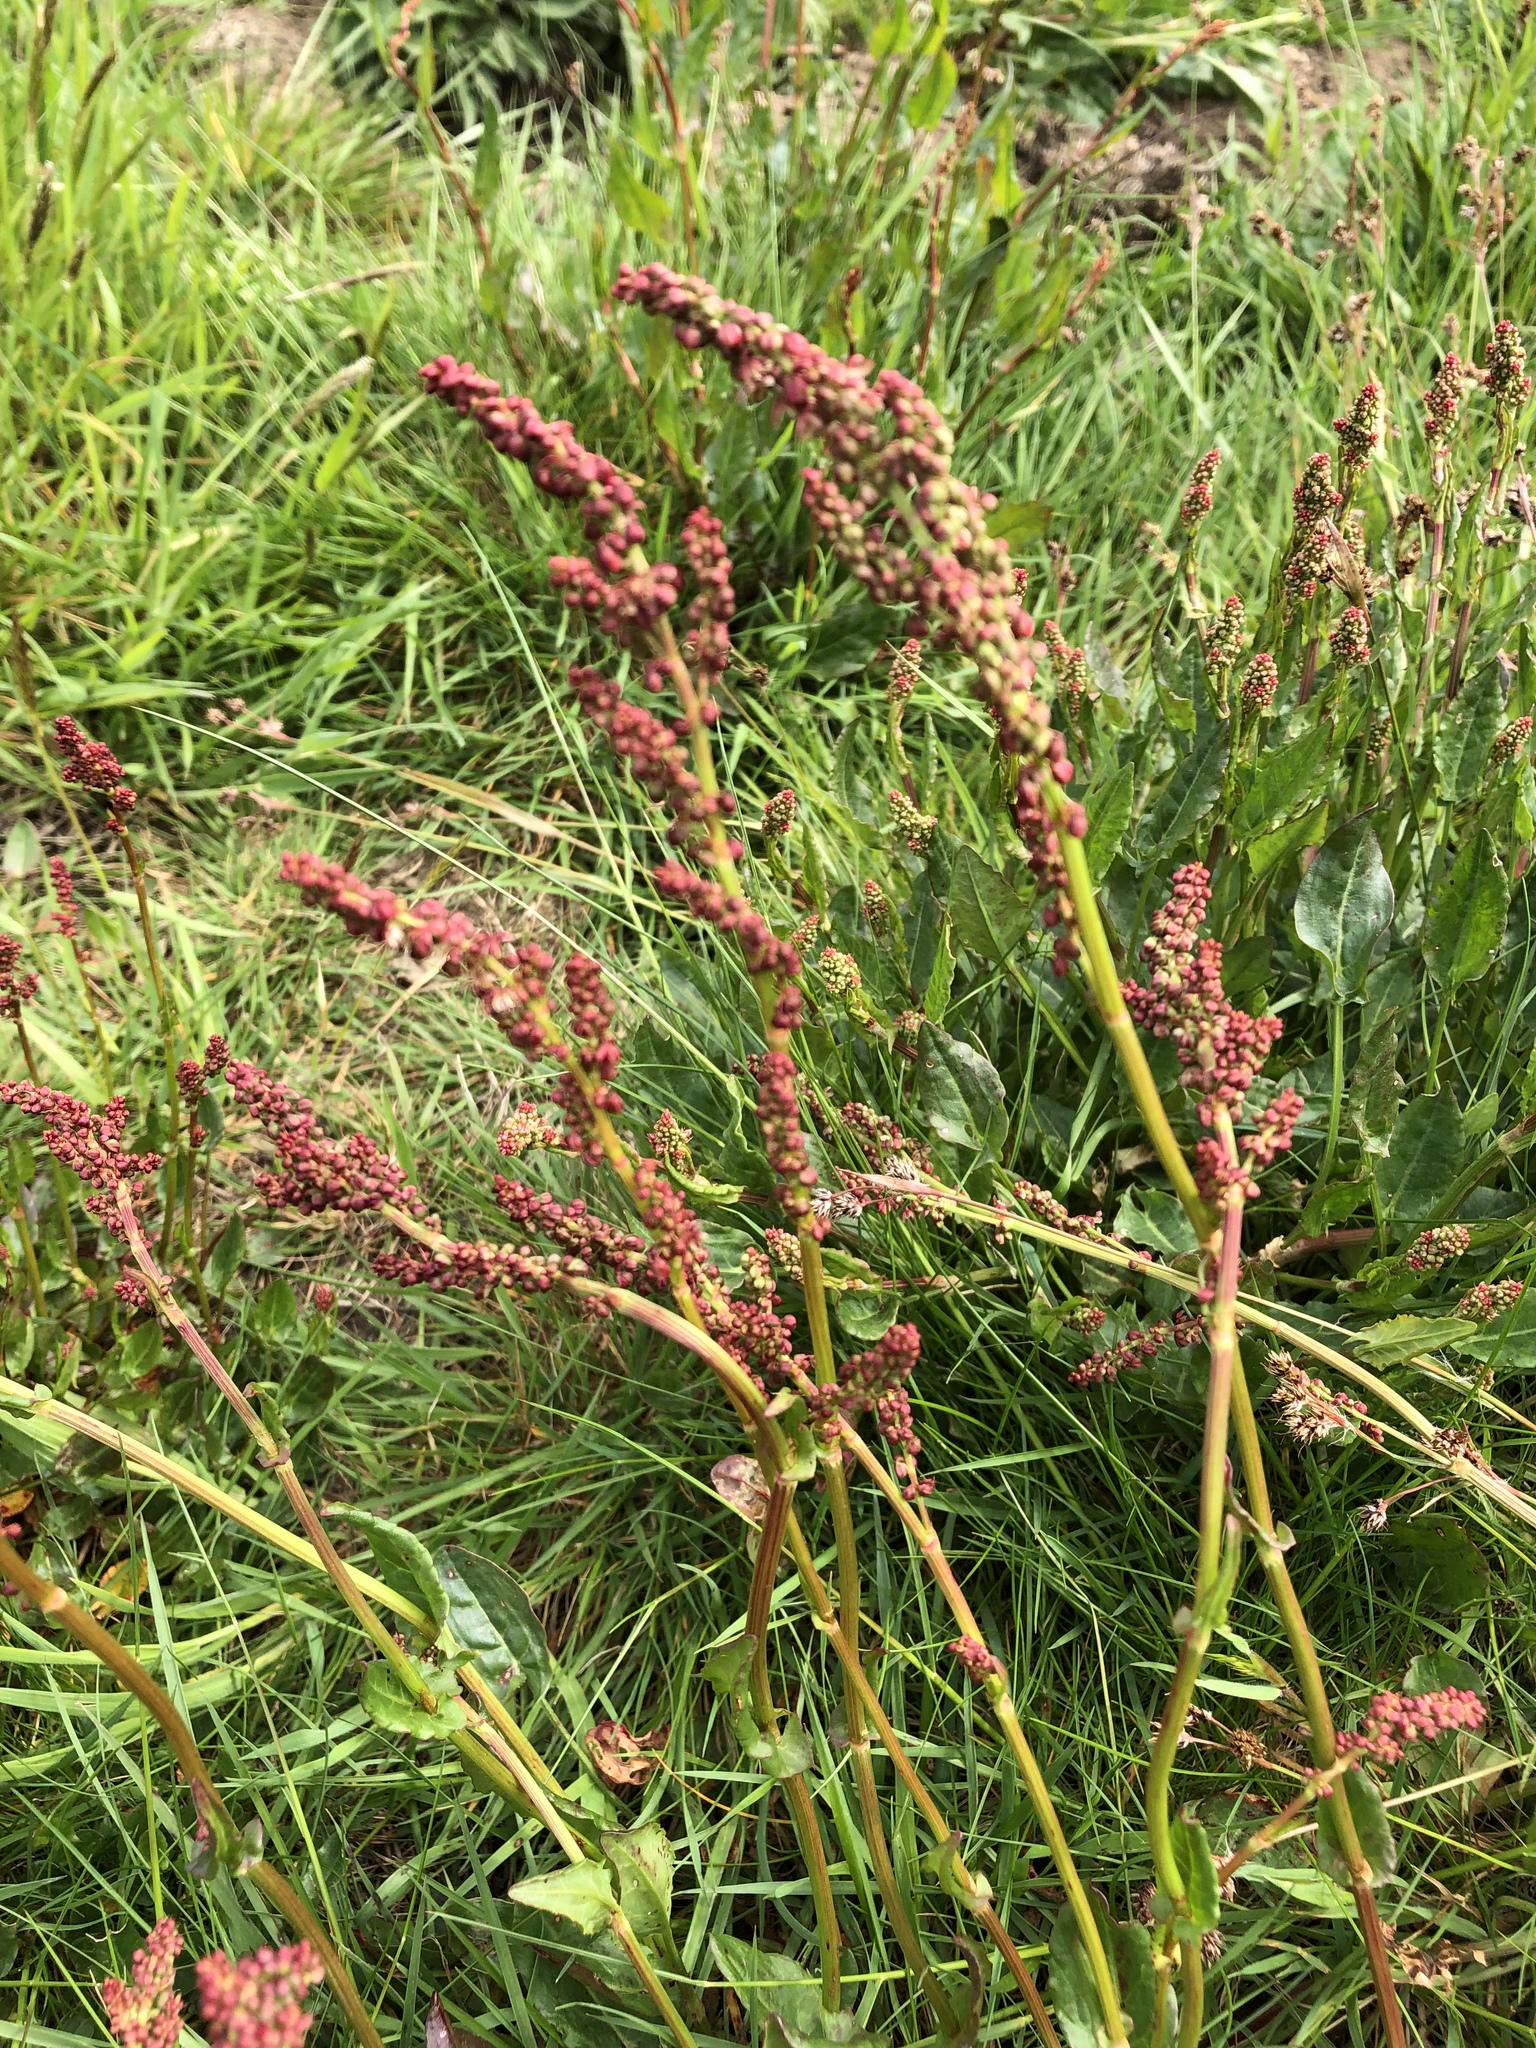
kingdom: Plantae
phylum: Tracheophyta
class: Magnoliopsida
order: Caryophyllales
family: Polygonaceae
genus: Rumex
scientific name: Rumex acetosa
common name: Garden sorrel
